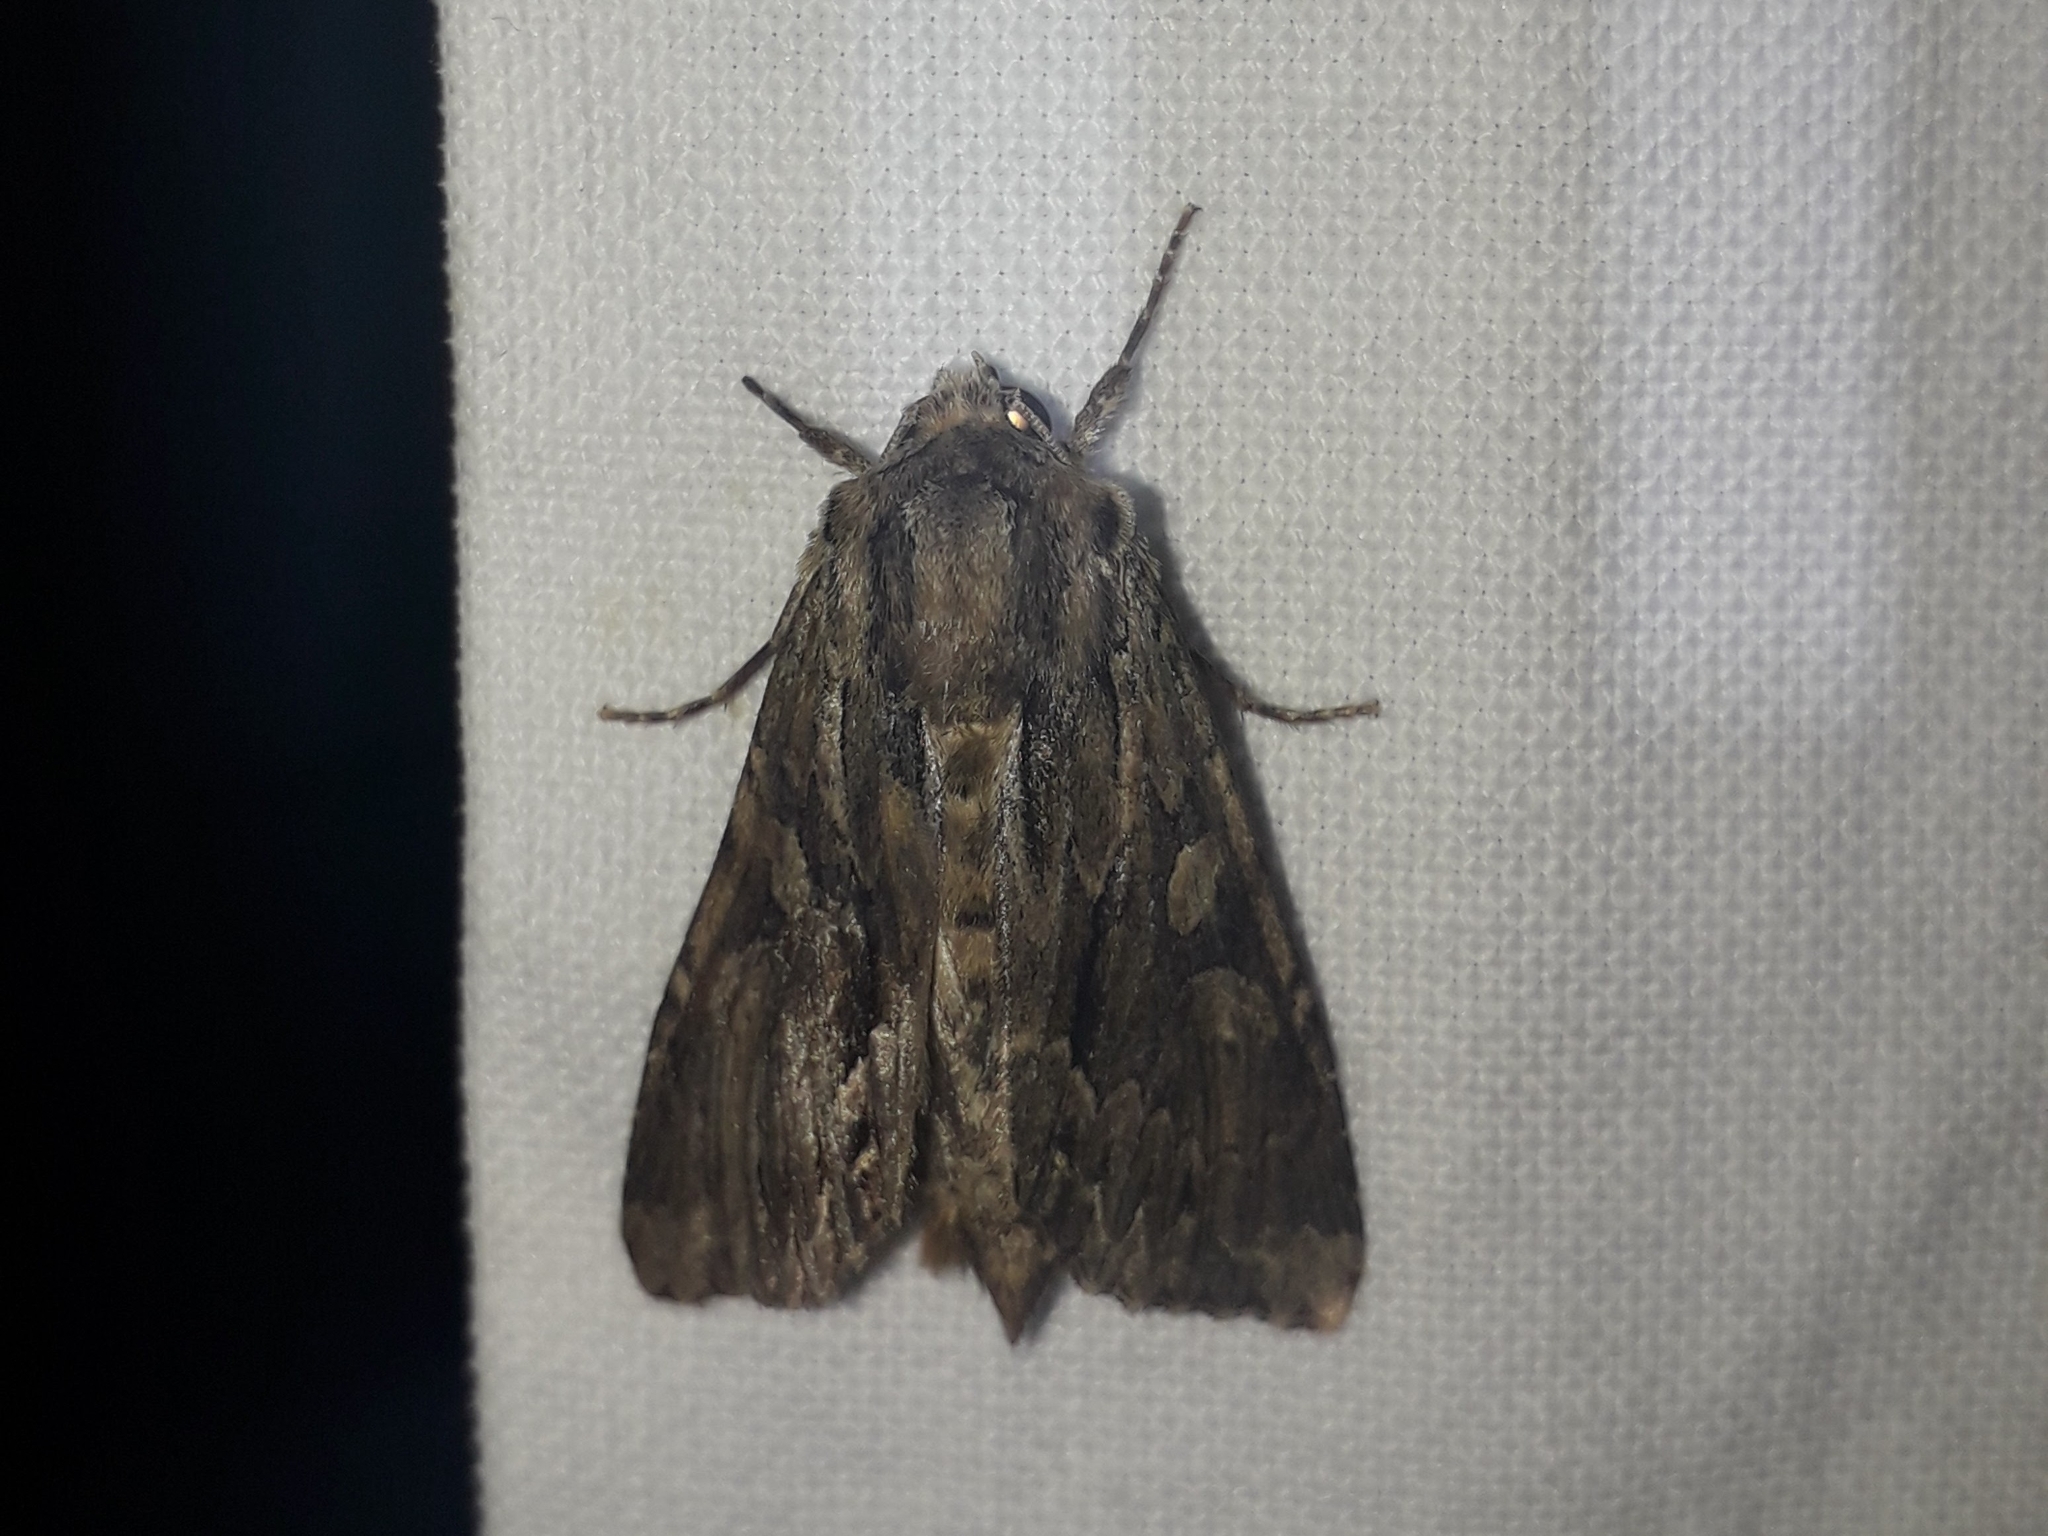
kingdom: Animalia
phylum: Arthropoda
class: Insecta
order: Lepidoptera
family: Noctuidae
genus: Apamea
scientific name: Apamea monoglypha
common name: Dark arches
